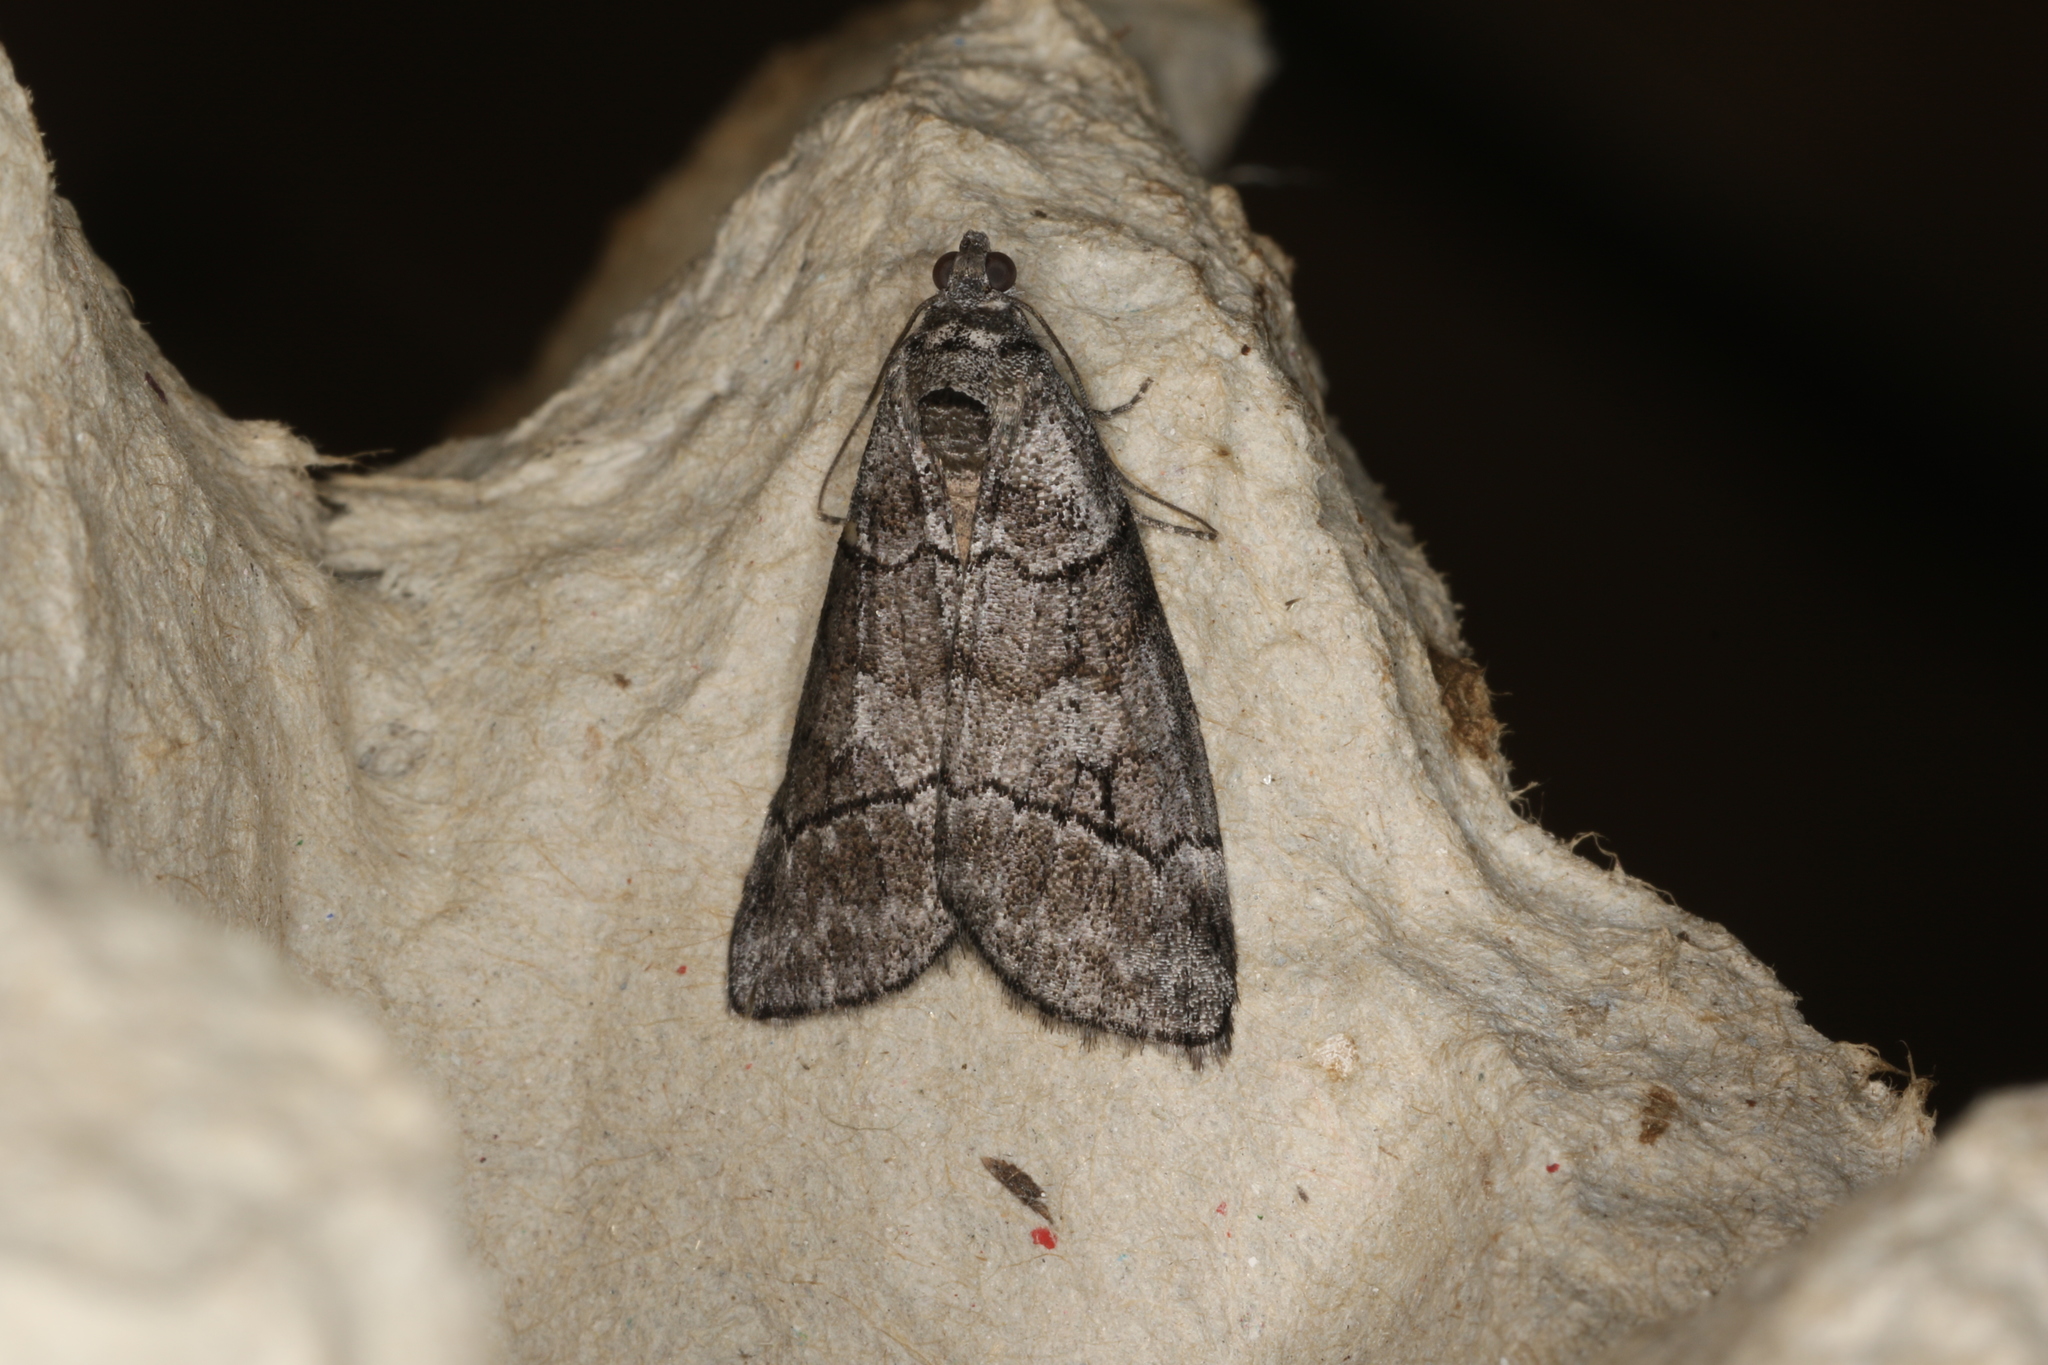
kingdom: Animalia
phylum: Arthropoda
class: Insecta
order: Lepidoptera
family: Geometridae
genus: Corula
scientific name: Corula geometroides
